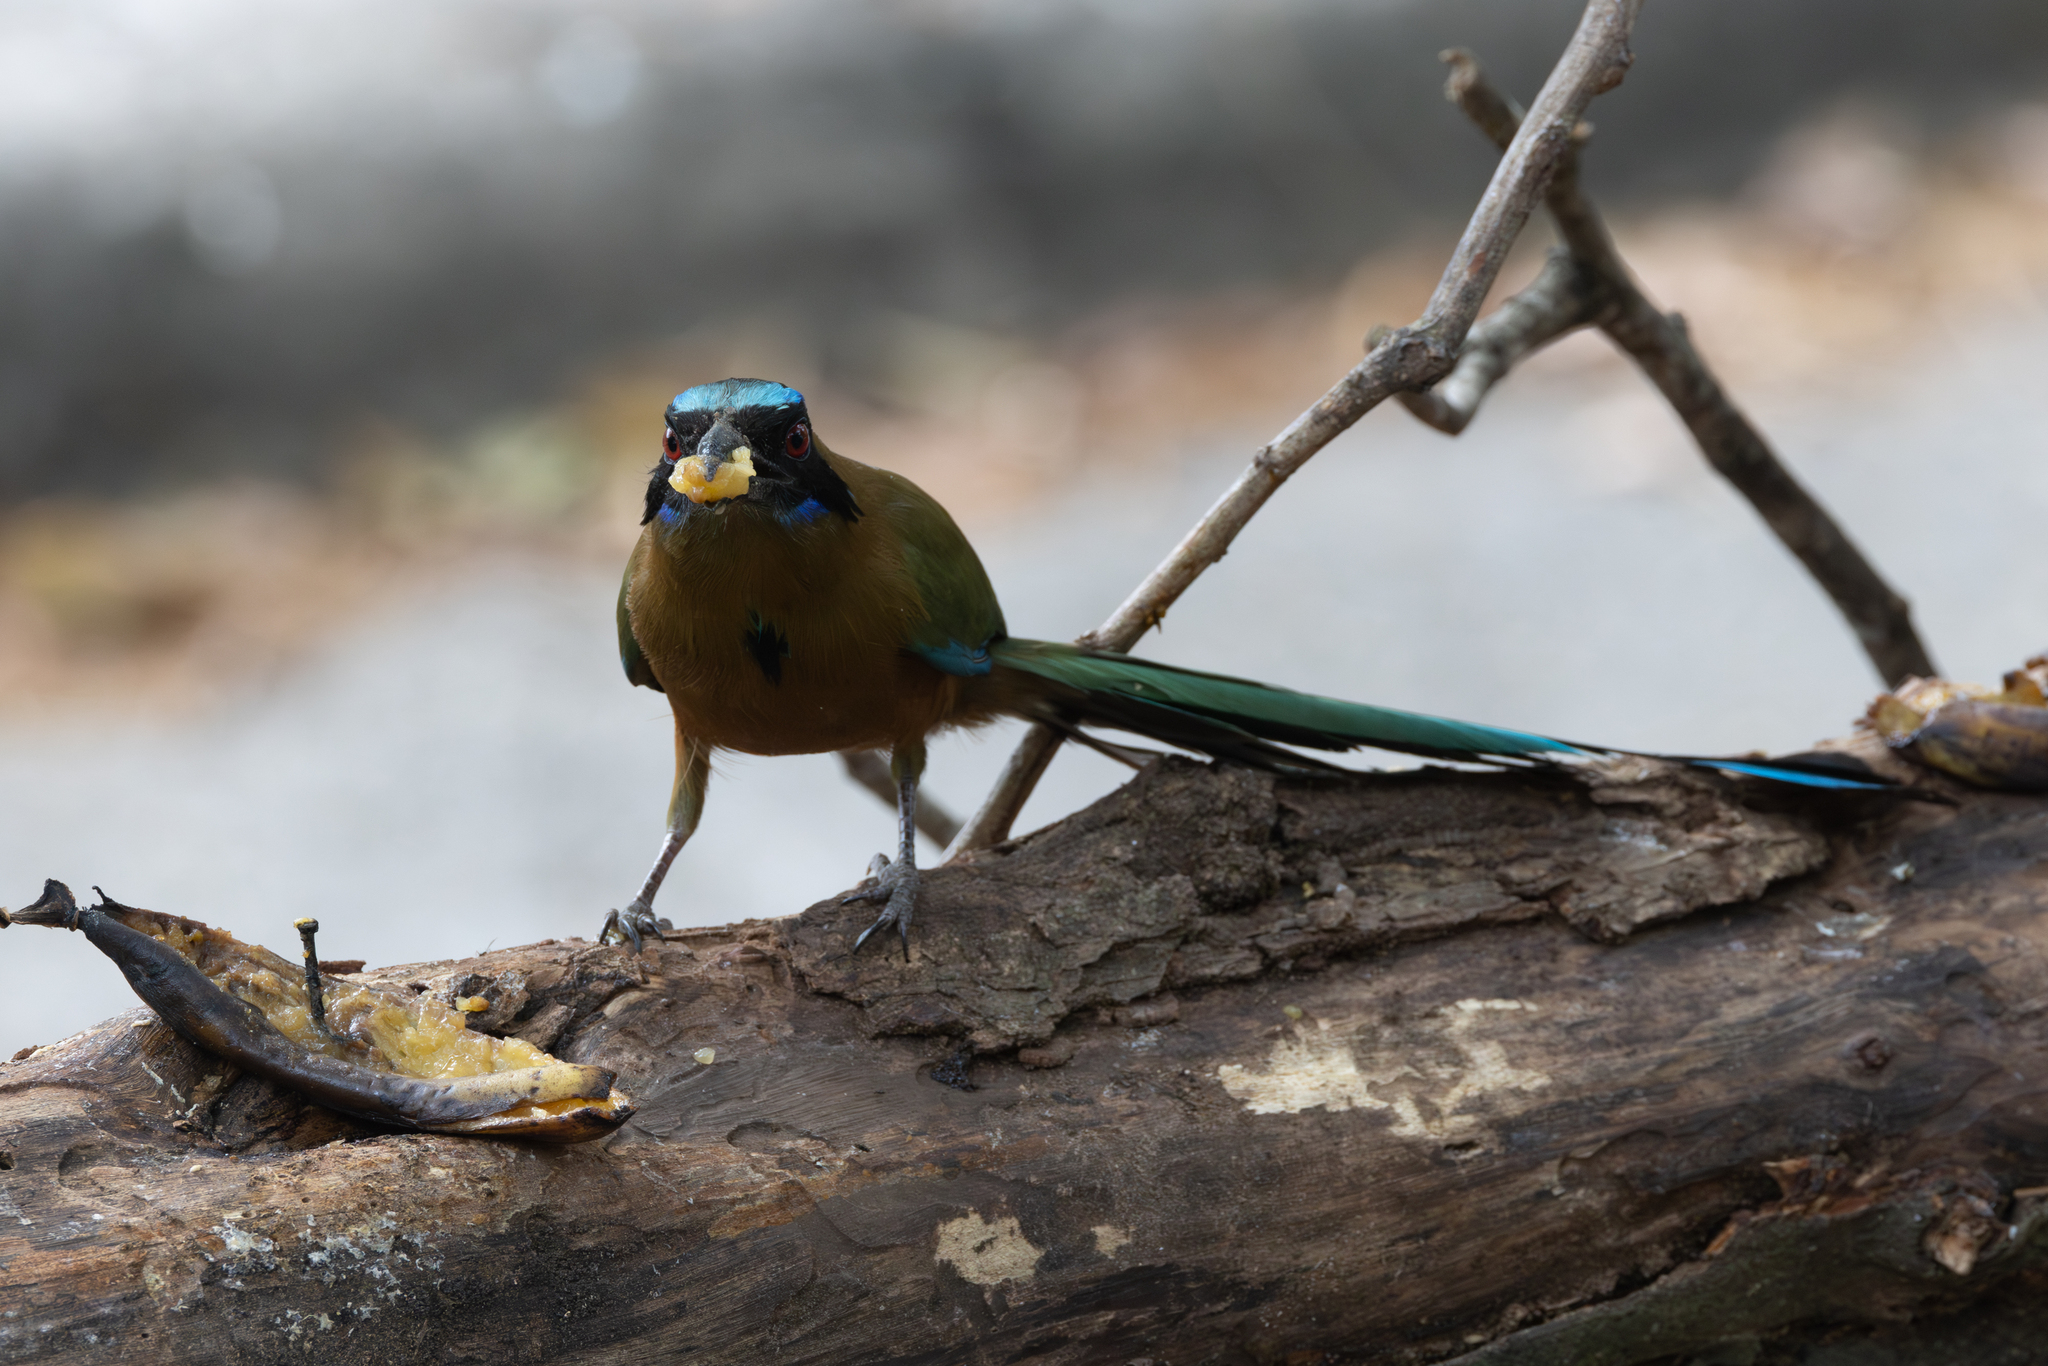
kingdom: Animalia
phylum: Chordata
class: Aves
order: Coraciiformes
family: Momotidae
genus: Momotus
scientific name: Momotus subrufescens
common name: Whooping motmot
